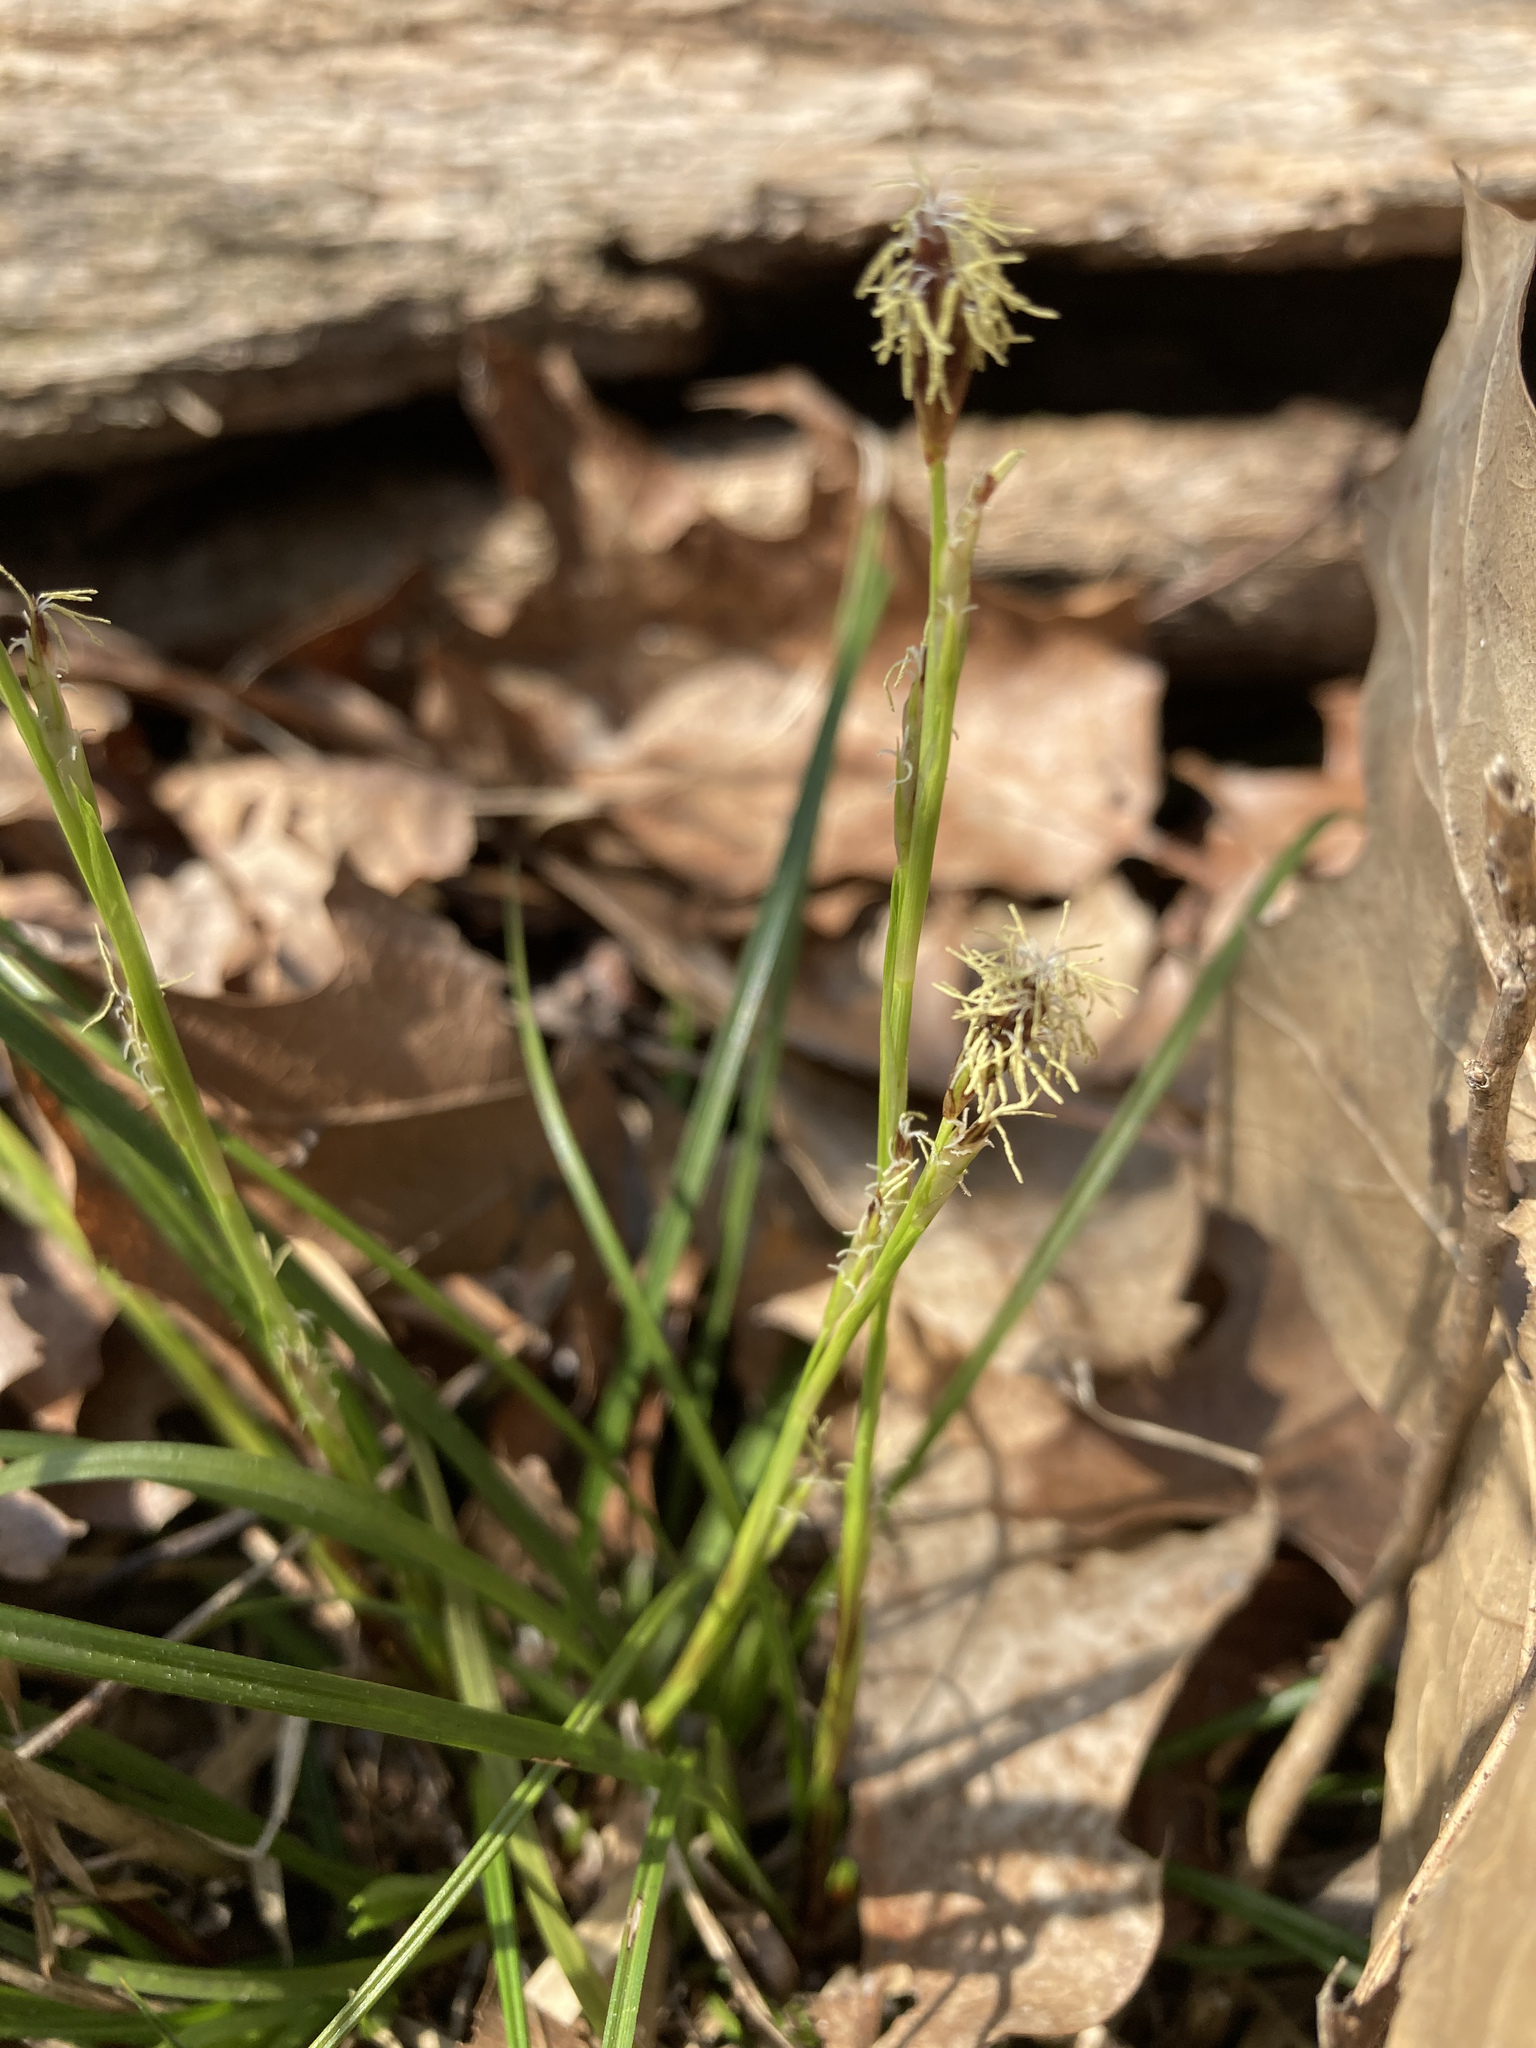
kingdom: Plantae
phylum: Tracheophyta
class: Liliopsida
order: Poales
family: Cyperaceae
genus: Carex
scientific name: Carex pedunculata
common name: Pedunculate sedge
